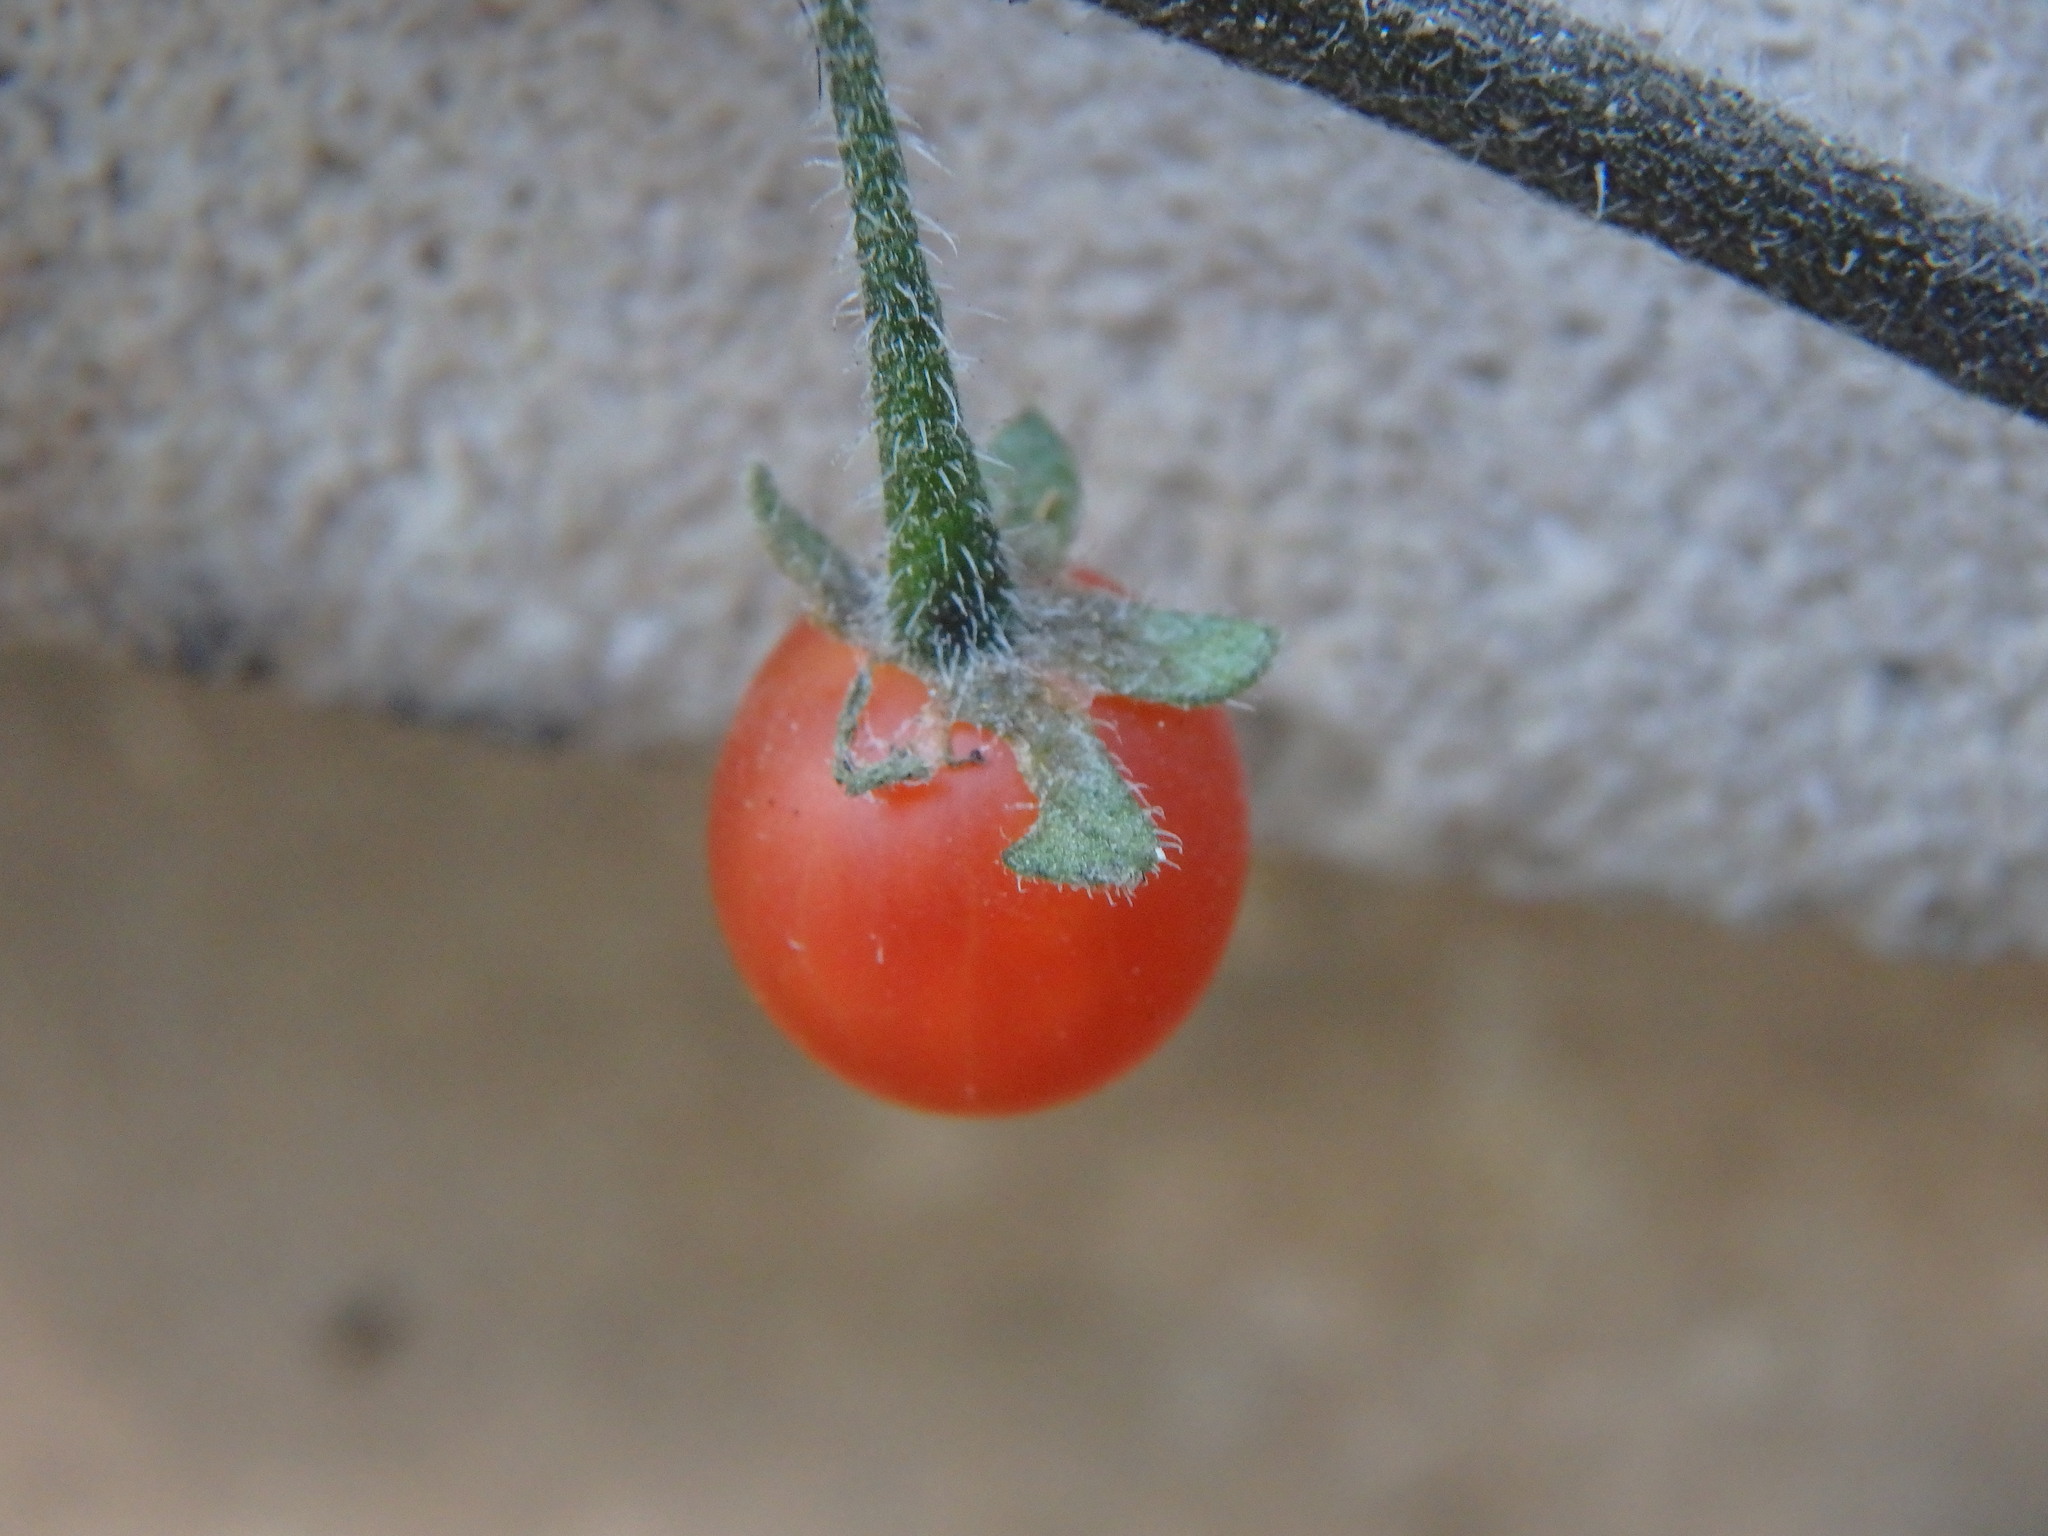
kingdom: Plantae
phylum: Tracheophyta
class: Magnoliopsida
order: Solanales
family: Solanaceae
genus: Solanum
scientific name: Solanum villosum
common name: Red nightshade
